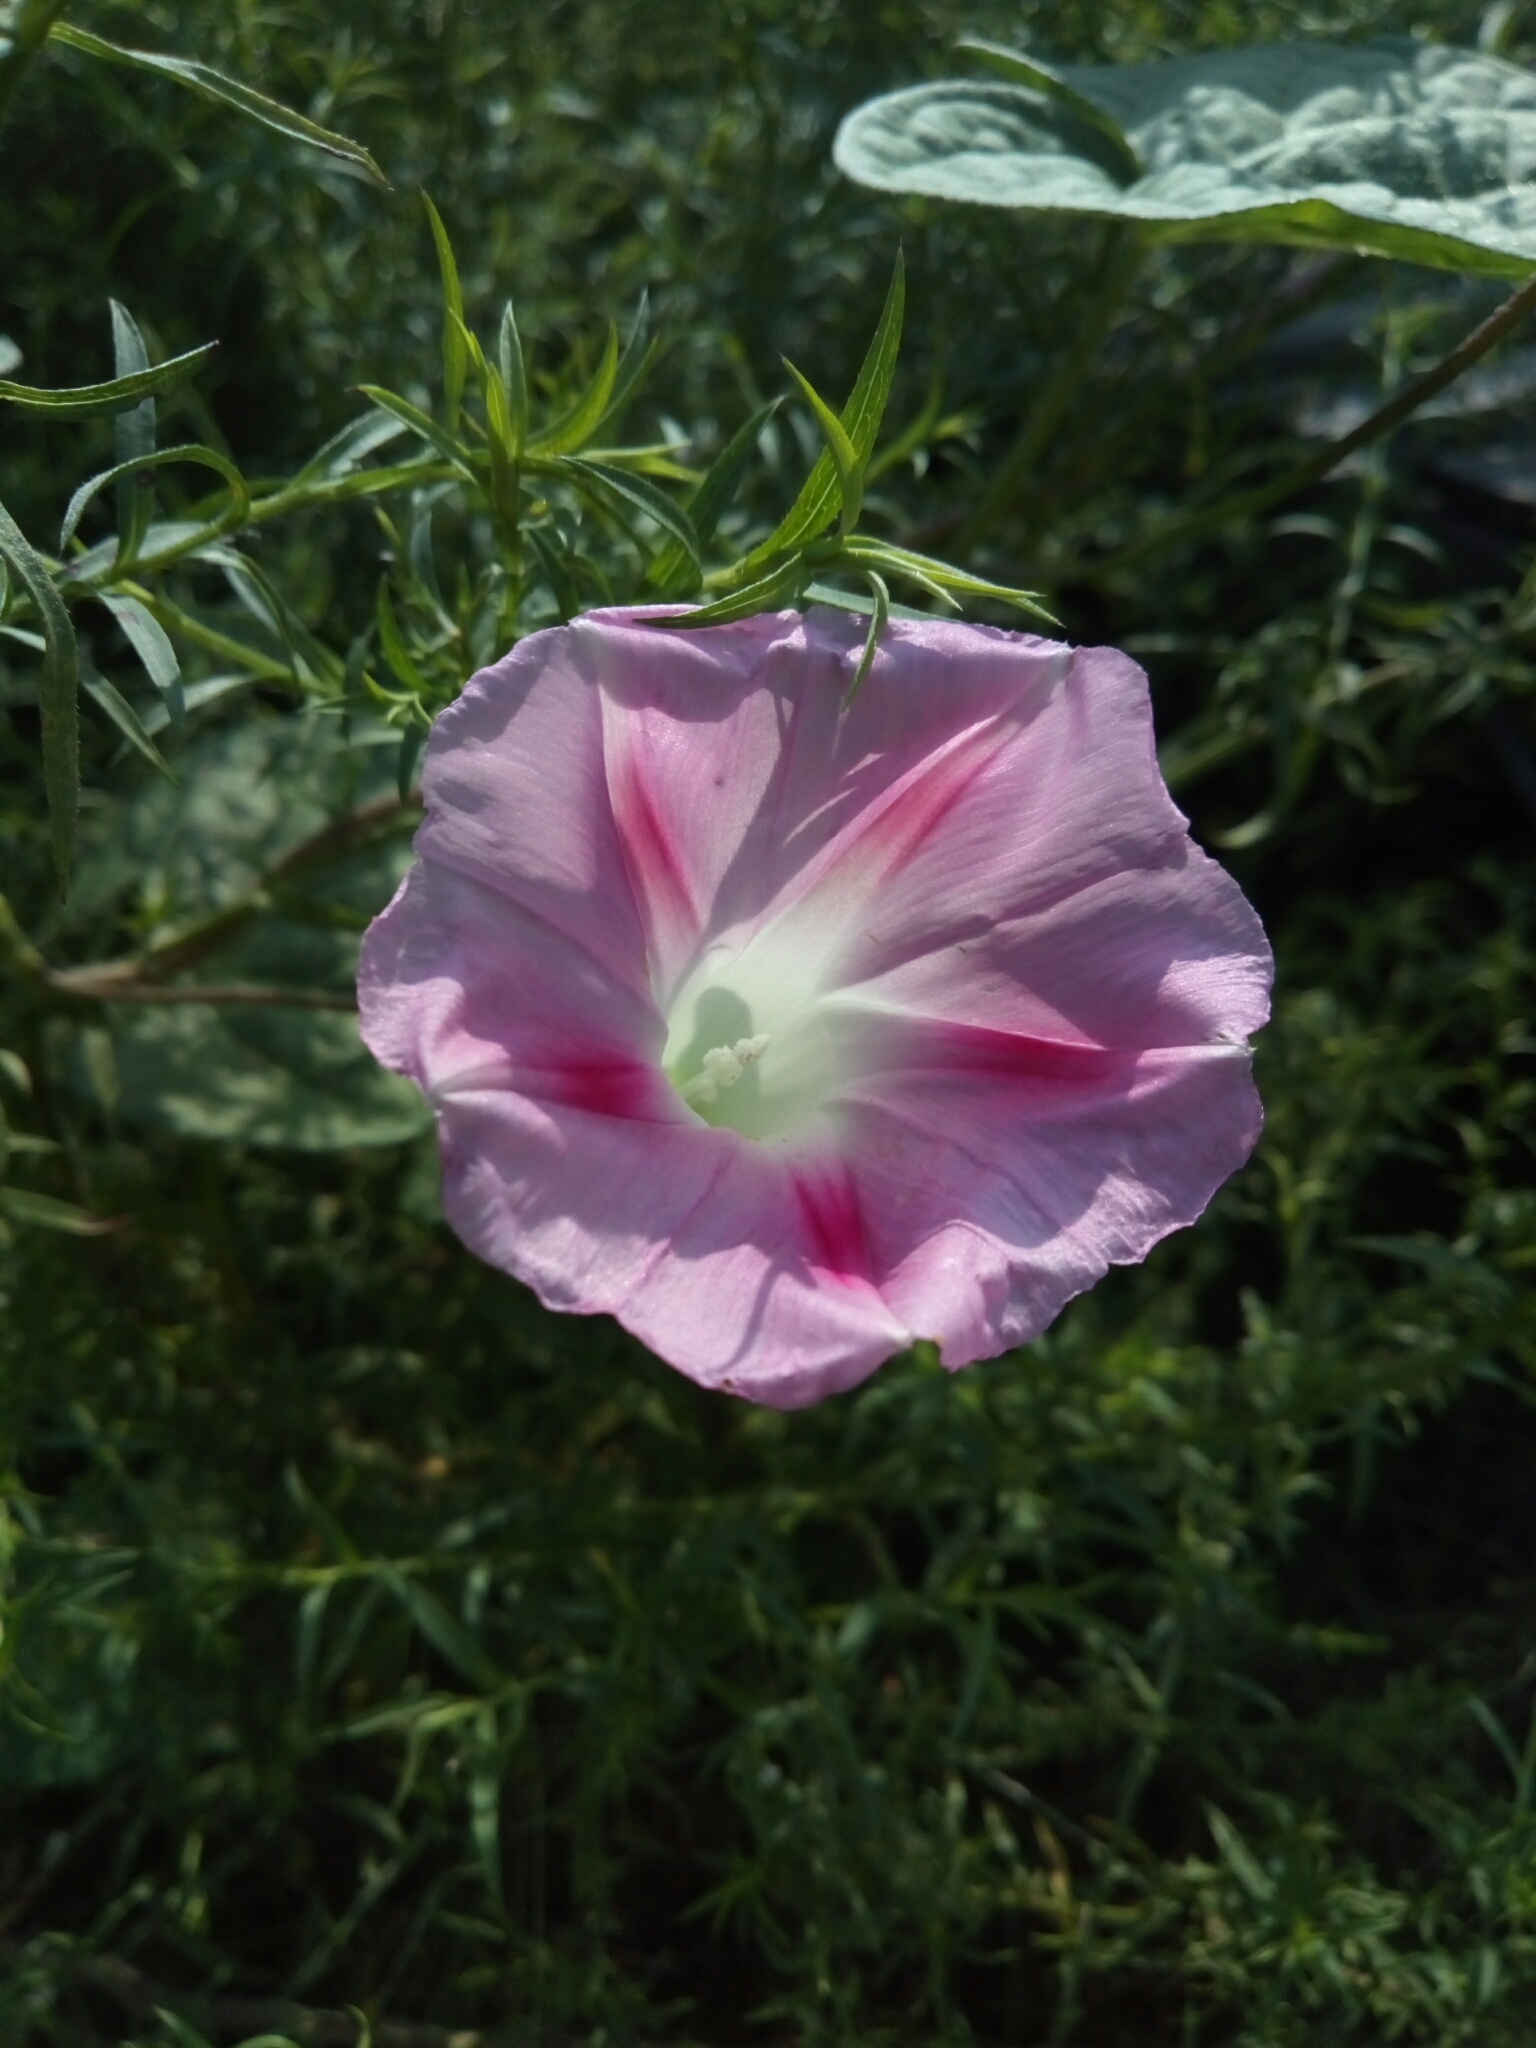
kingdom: Plantae
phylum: Tracheophyta
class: Magnoliopsida
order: Solanales
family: Convolvulaceae
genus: Ipomoea
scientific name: Ipomoea purpurea
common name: Common morning-glory
